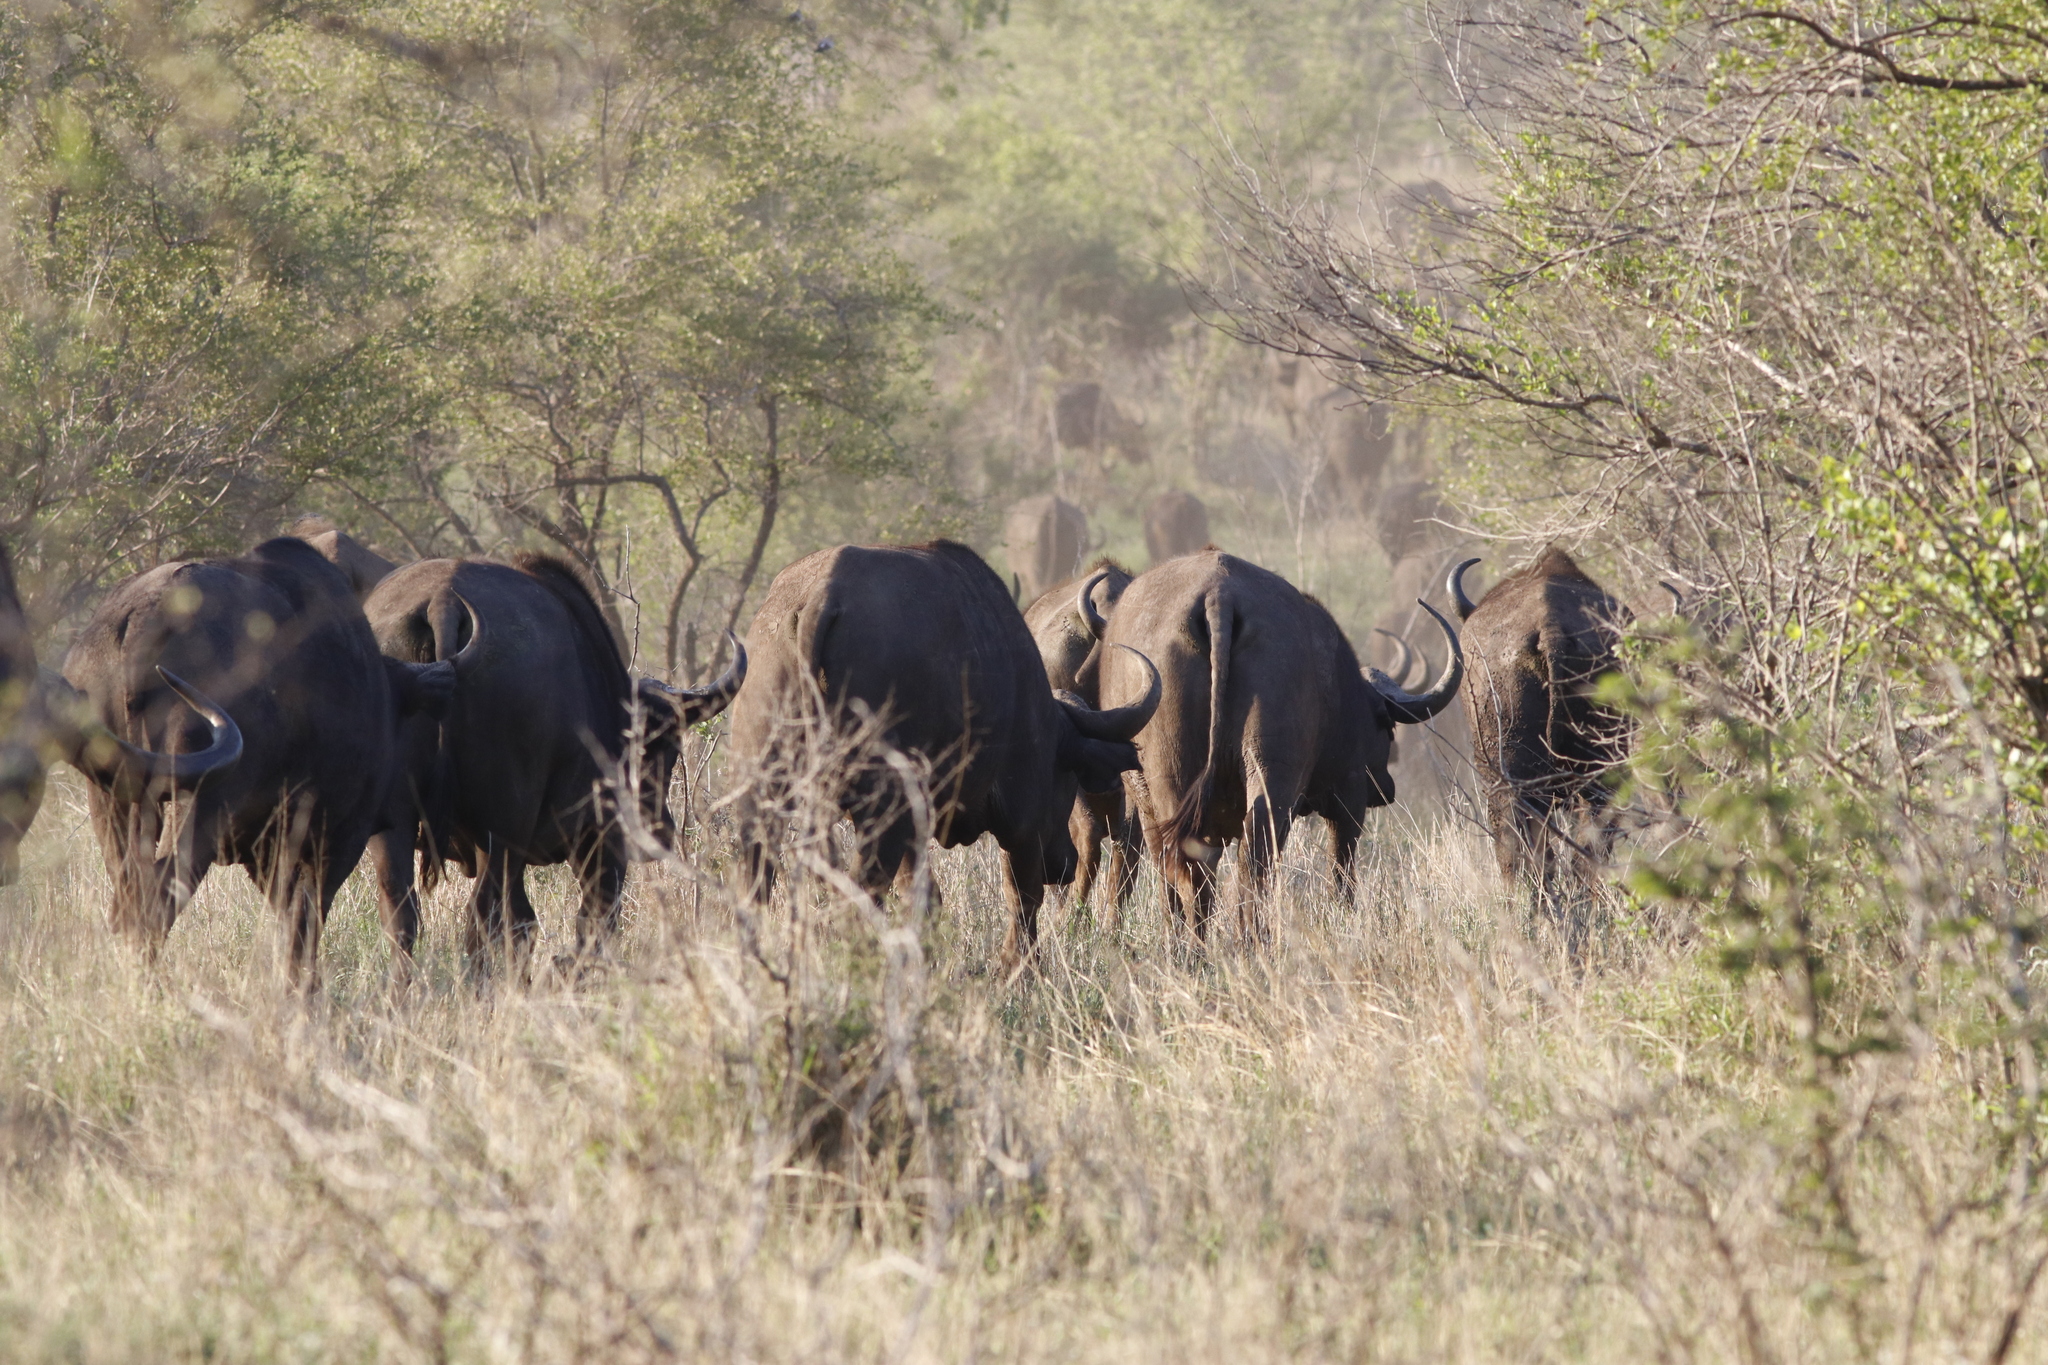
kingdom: Animalia
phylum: Chordata
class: Mammalia
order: Artiodactyla
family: Bovidae
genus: Syncerus
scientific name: Syncerus caffer
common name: African buffalo
